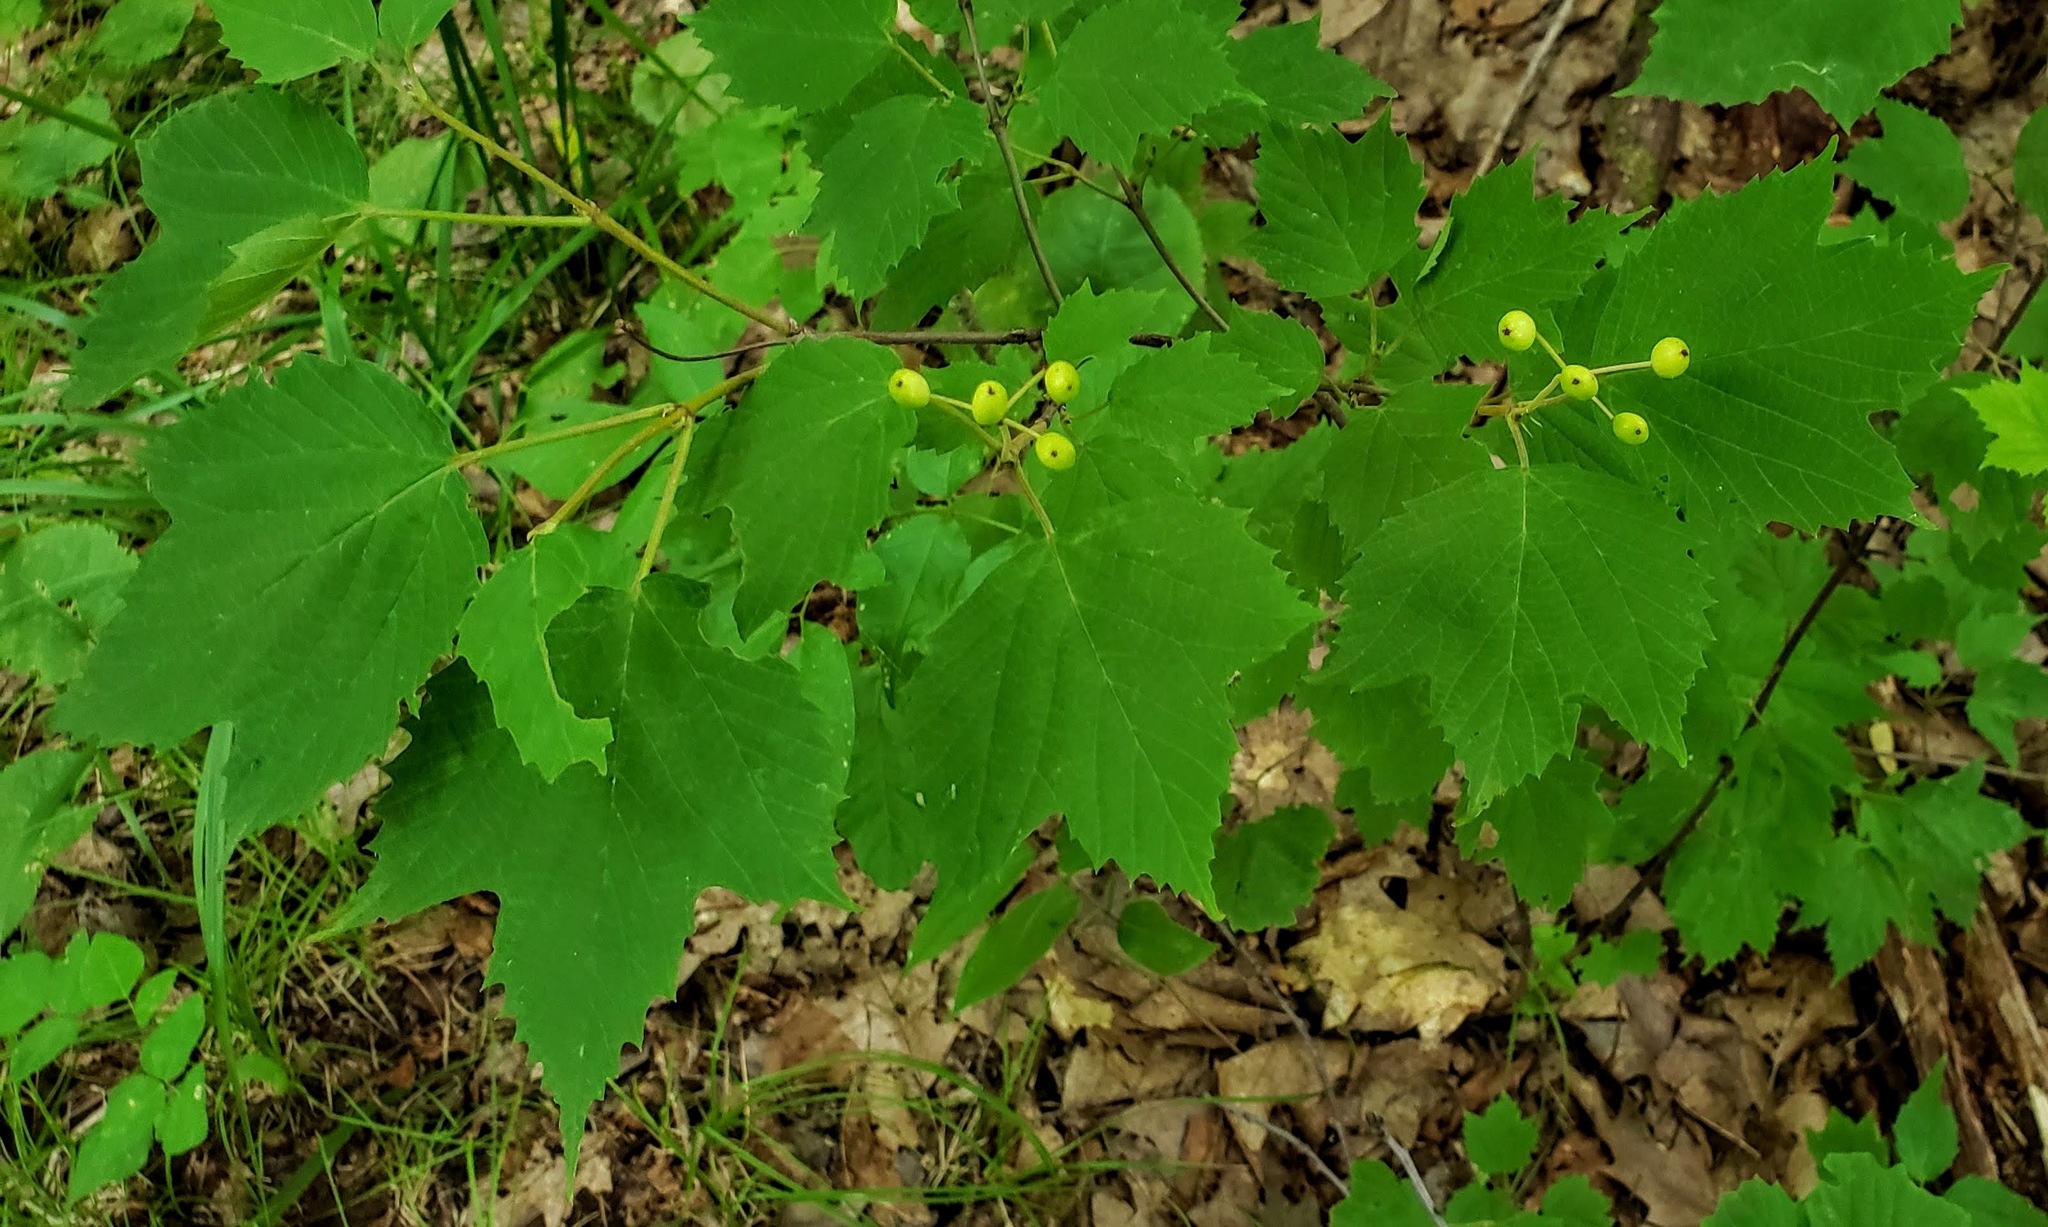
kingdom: Plantae
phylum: Tracheophyta
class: Magnoliopsida
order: Dipsacales
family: Viburnaceae
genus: Viburnum
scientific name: Viburnum acerifolium
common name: Dockmackie
